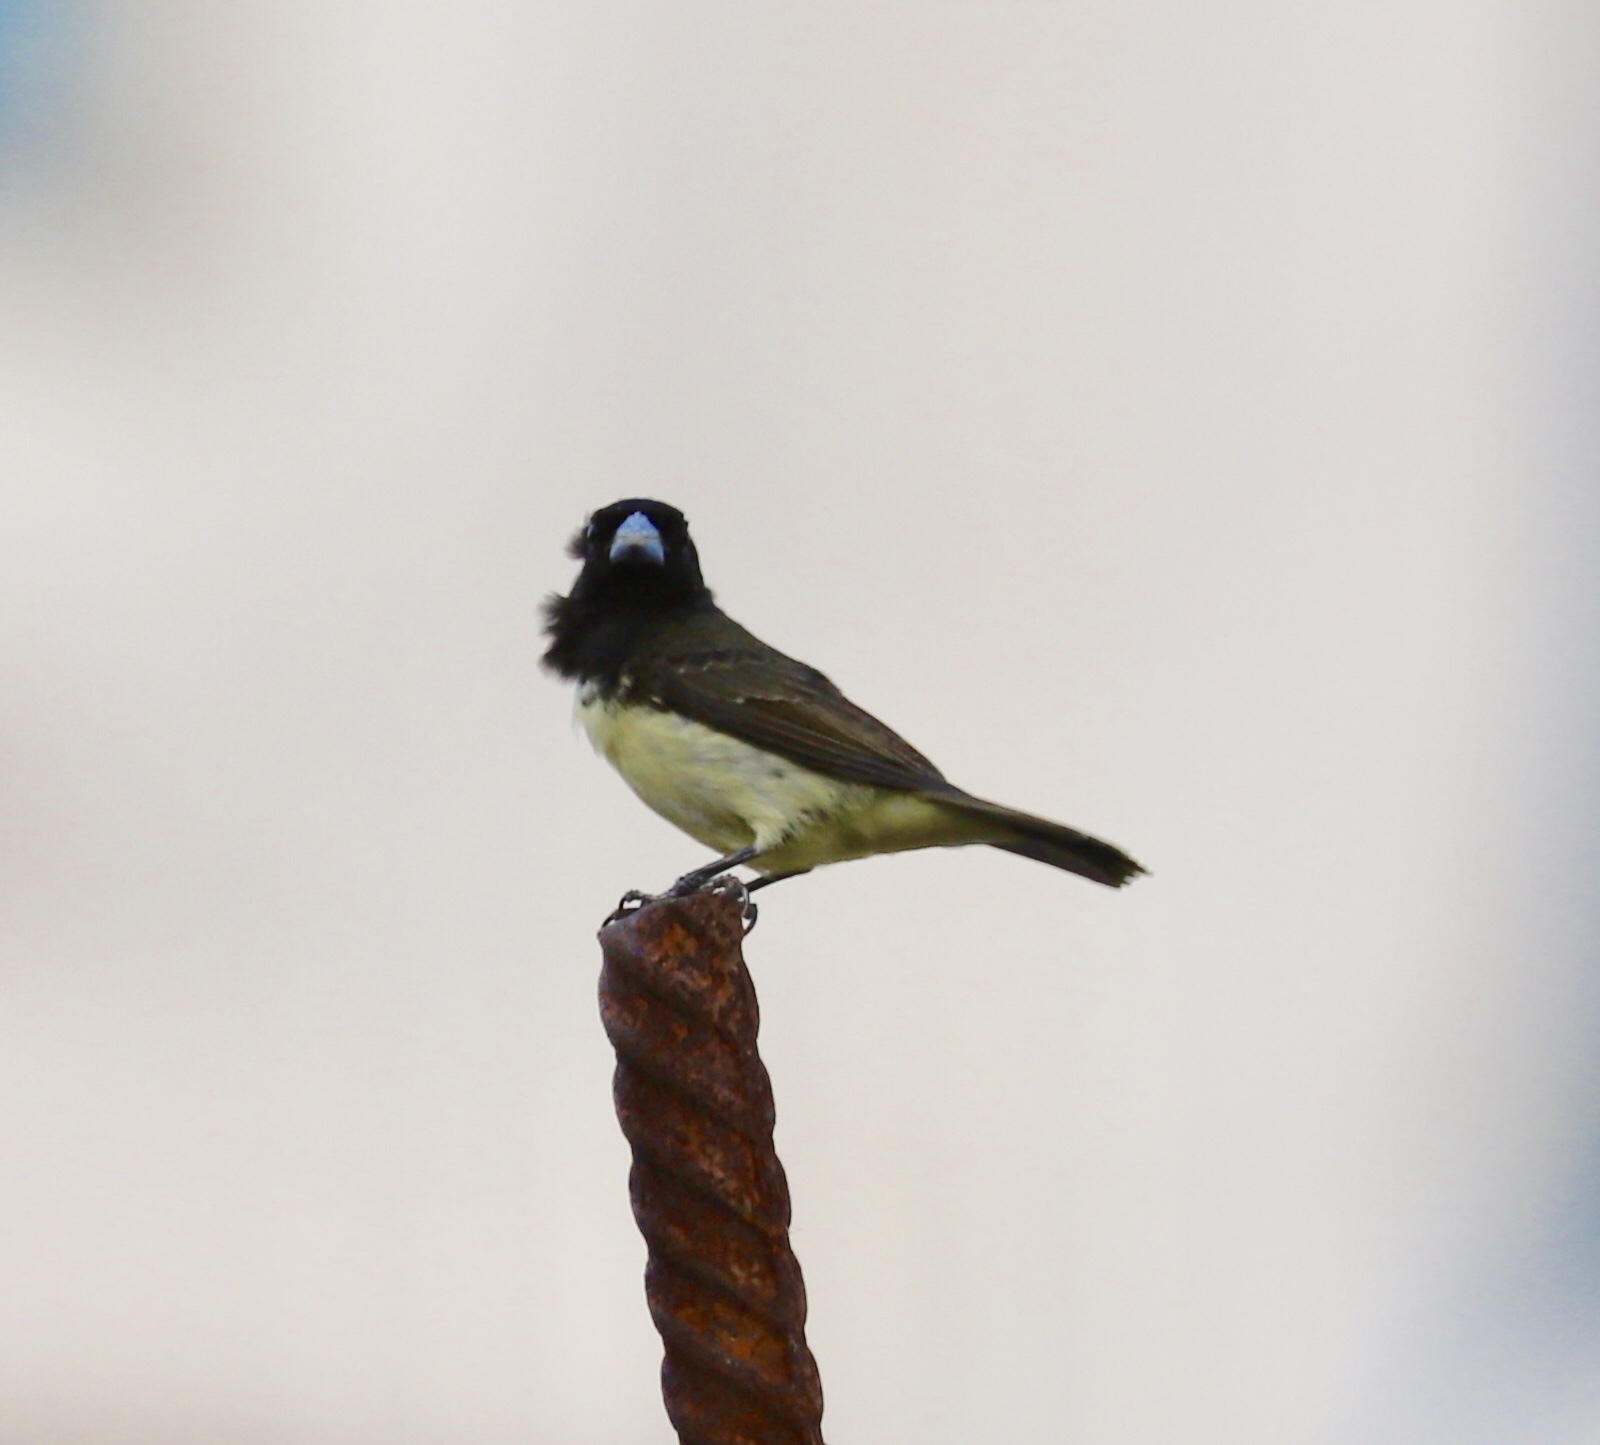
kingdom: Animalia
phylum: Chordata
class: Aves
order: Passeriformes
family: Thraupidae
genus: Sporophila
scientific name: Sporophila nigricollis
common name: Yellow-bellied seedeater
